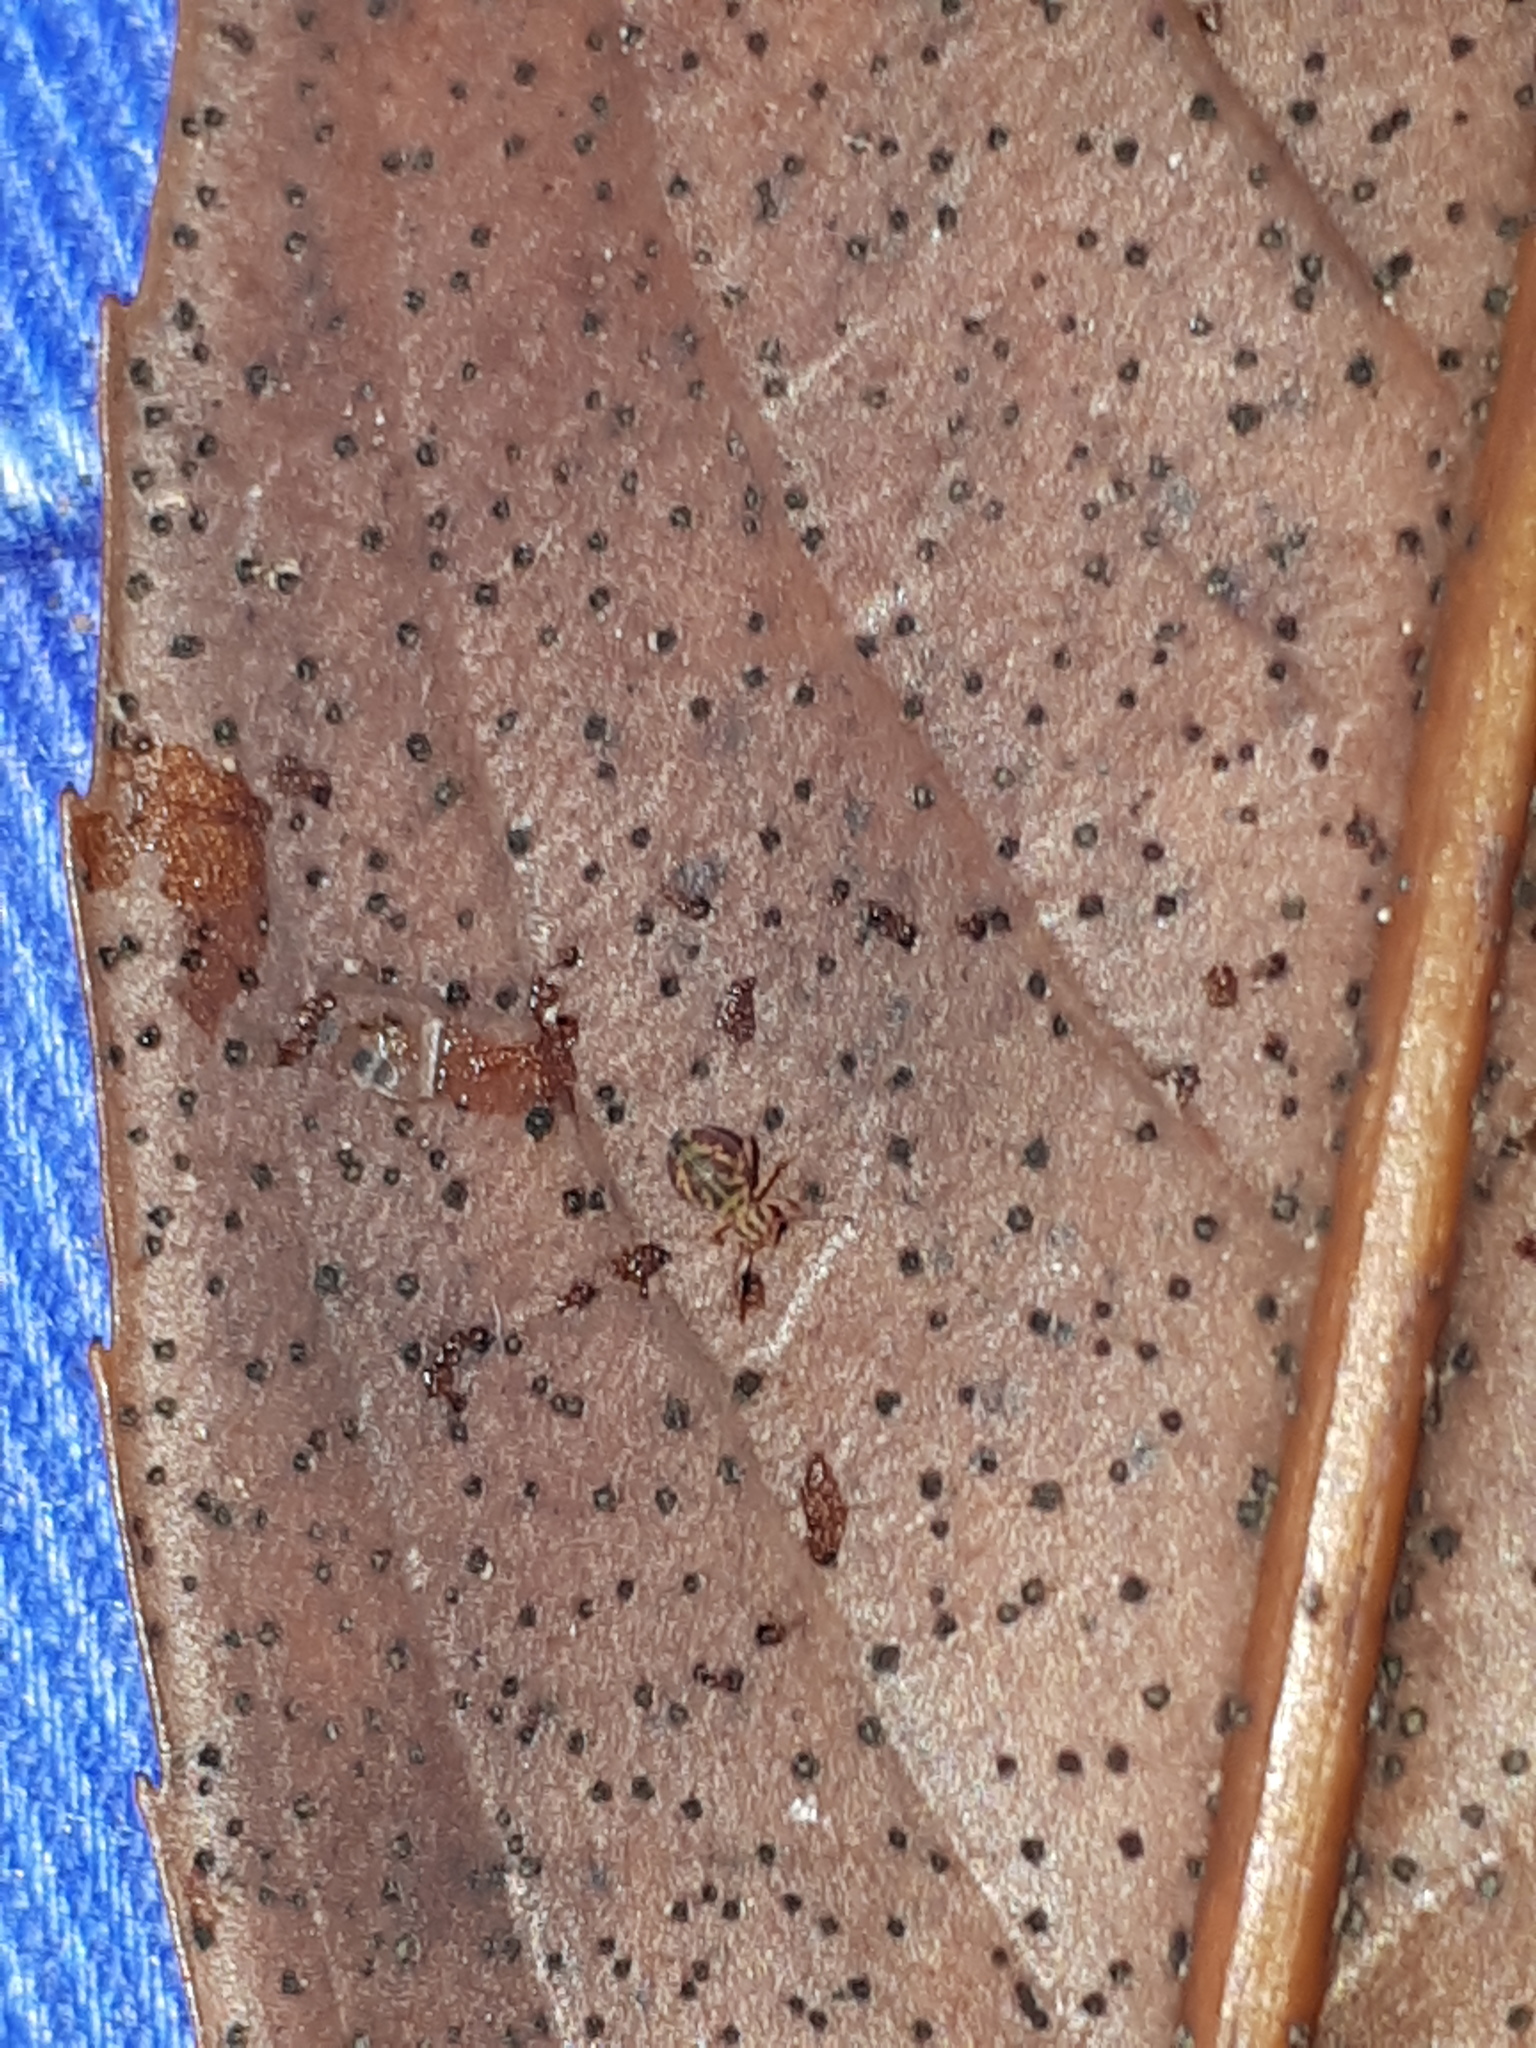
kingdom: Animalia
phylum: Arthropoda
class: Collembola
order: Symphypleona
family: Dicyrtomidae
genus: Dicyrtomina
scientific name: Dicyrtomina ornata
